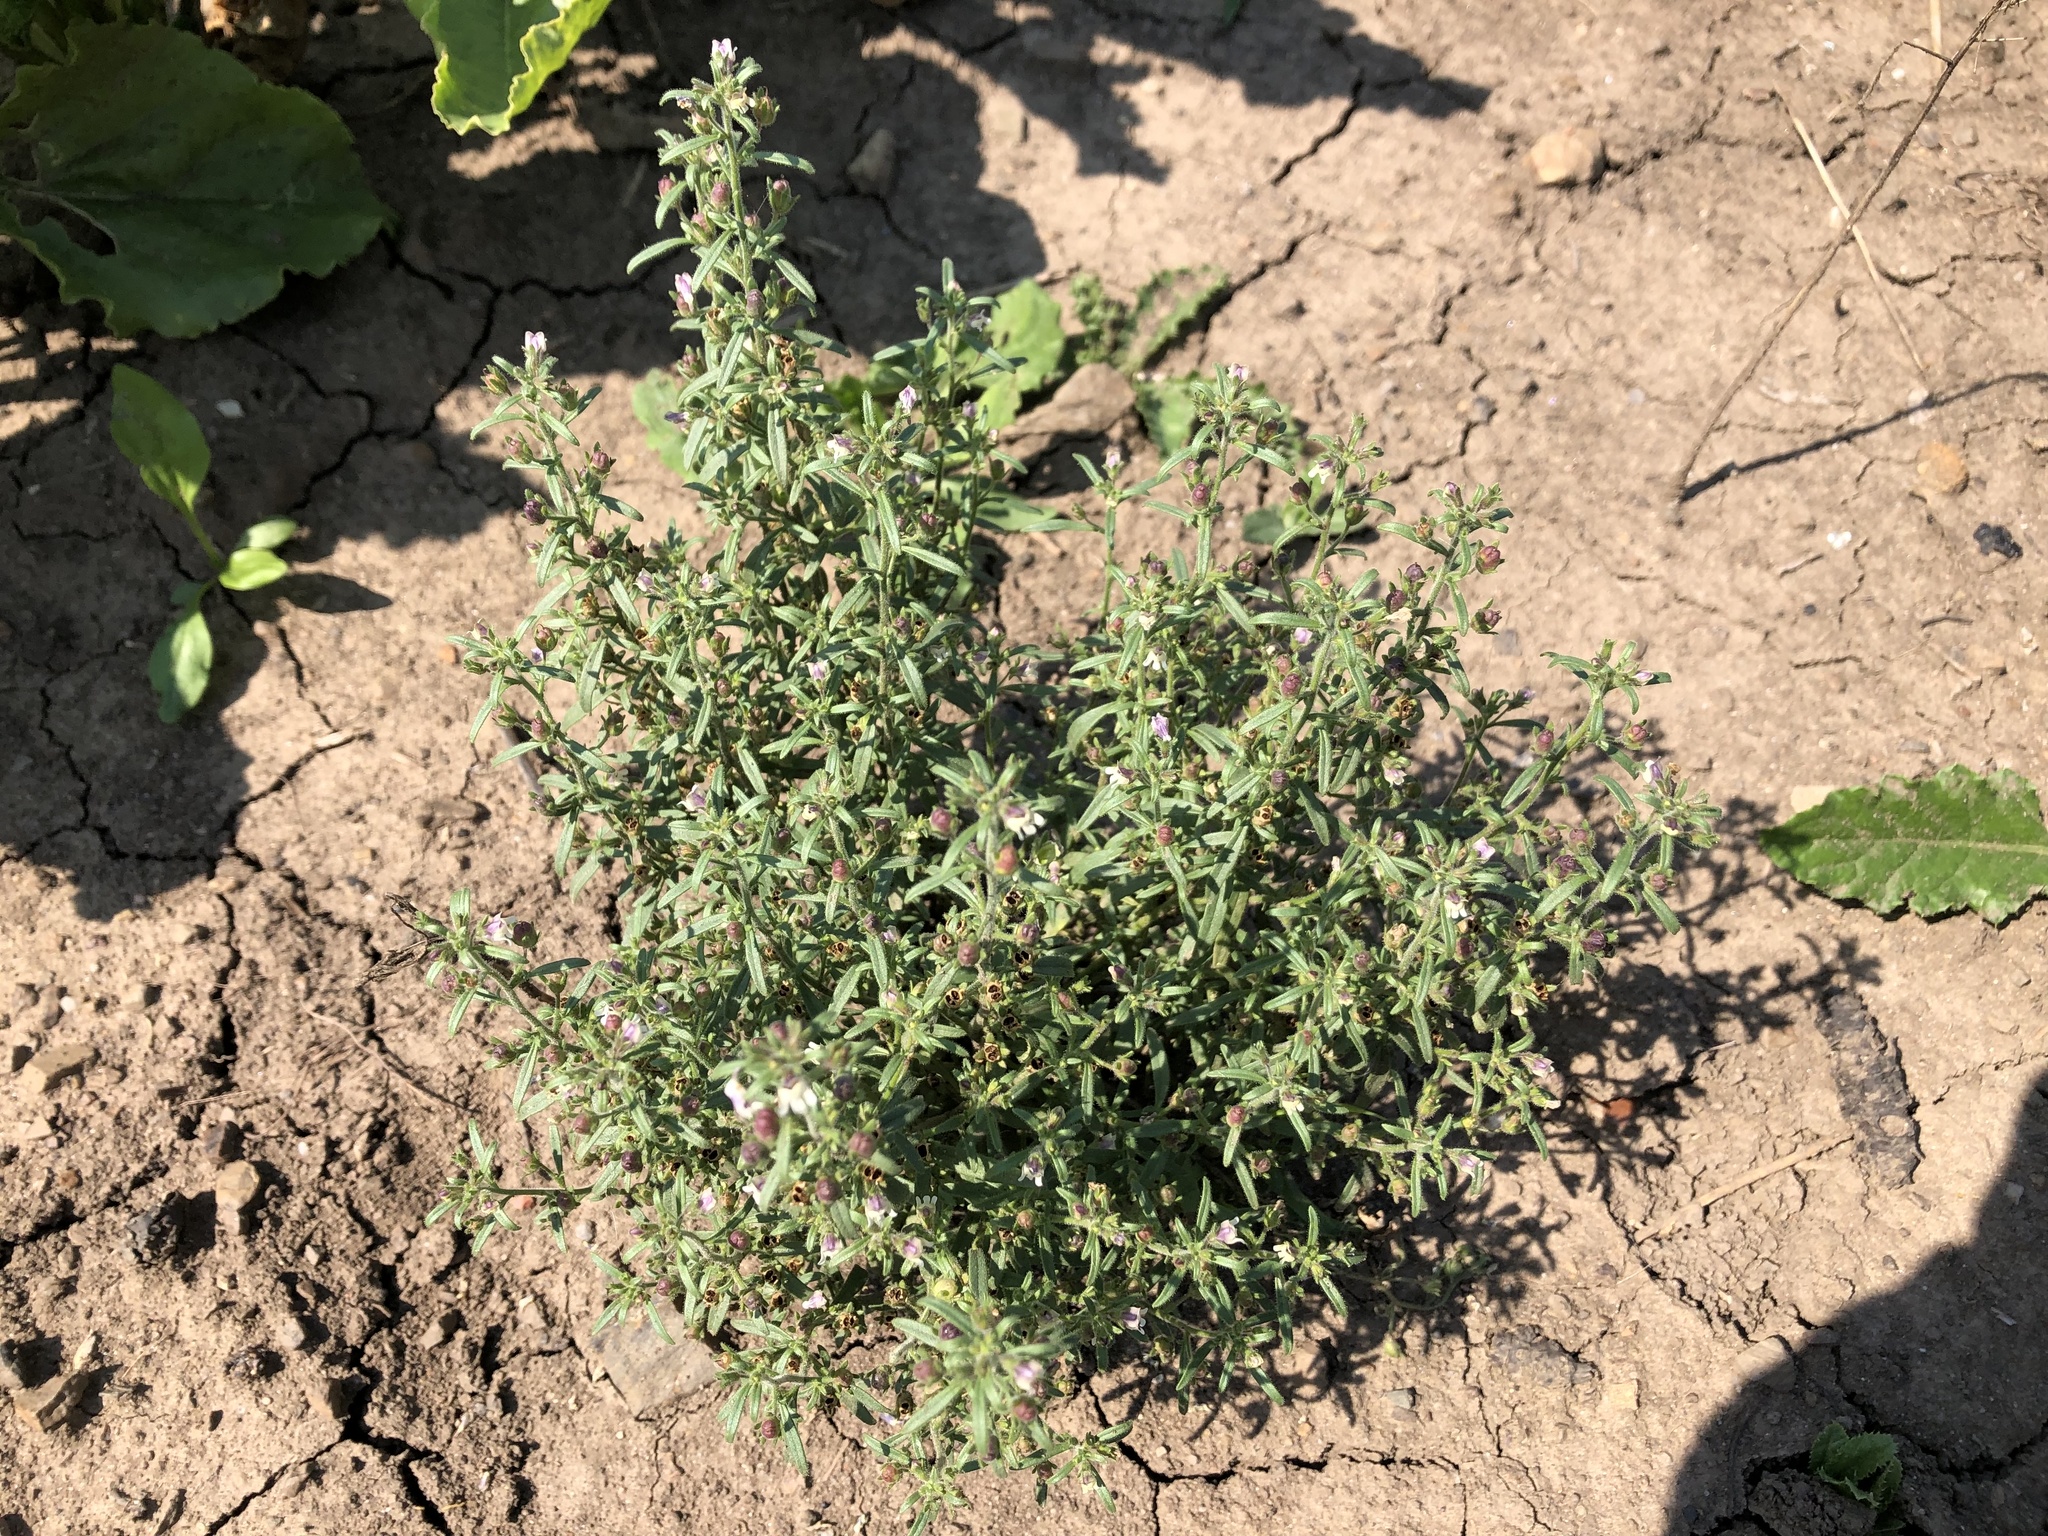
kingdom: Plantae
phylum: Tracheophyta
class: Magnoliopsida
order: Lamiales
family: Plantaginaceae
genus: Chaenorhinum
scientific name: Chaenorhinum minus
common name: Dwarf snapdragon
